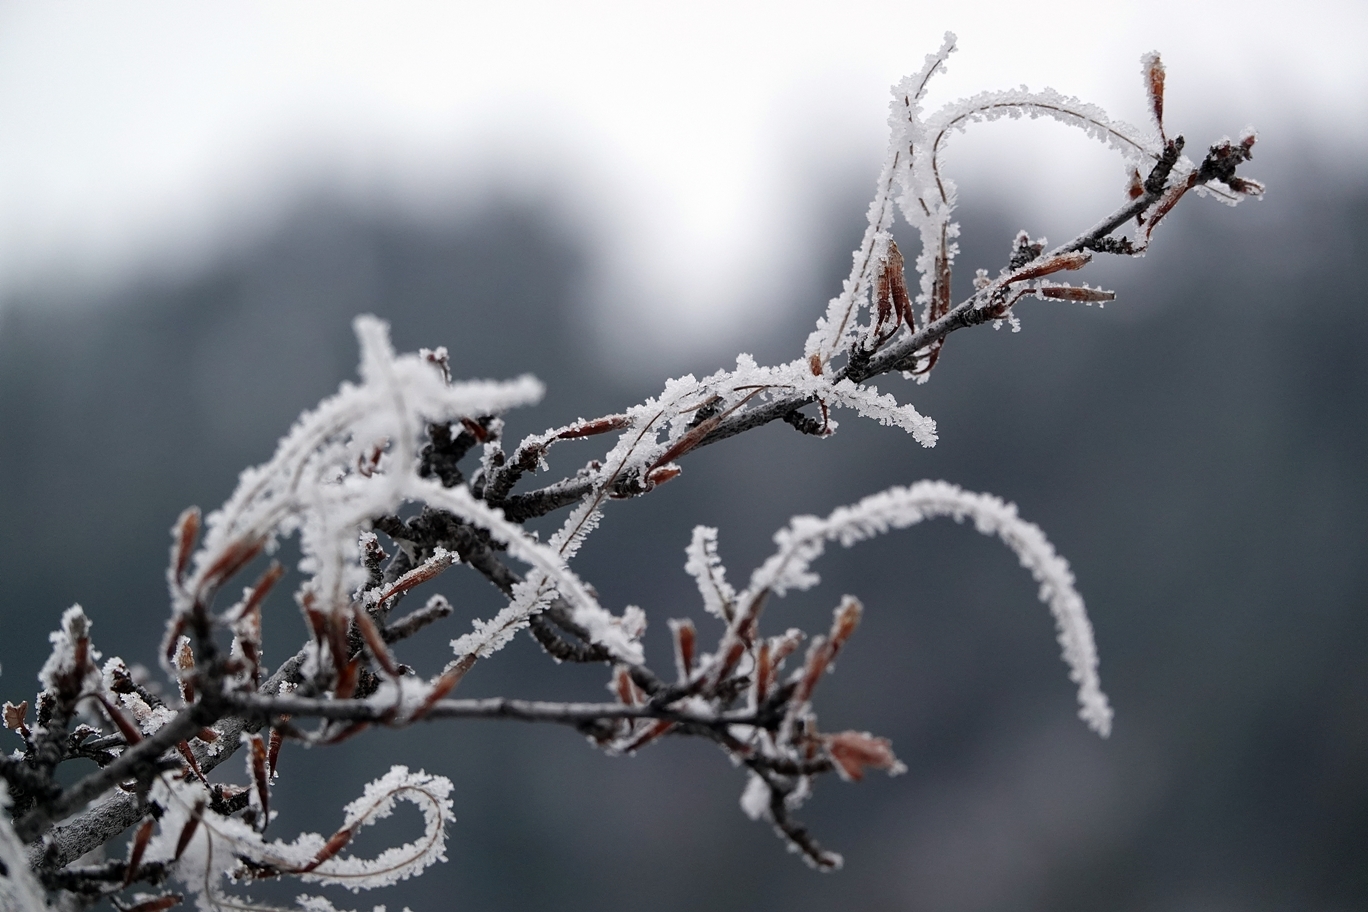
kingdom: Plantae
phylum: Tracheophyta
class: Magnoliopsida
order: Rosales
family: Rosaceae
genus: Cercocarpus
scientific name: Cercocarpus montanus
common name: Alder-leaf cercocarpus
